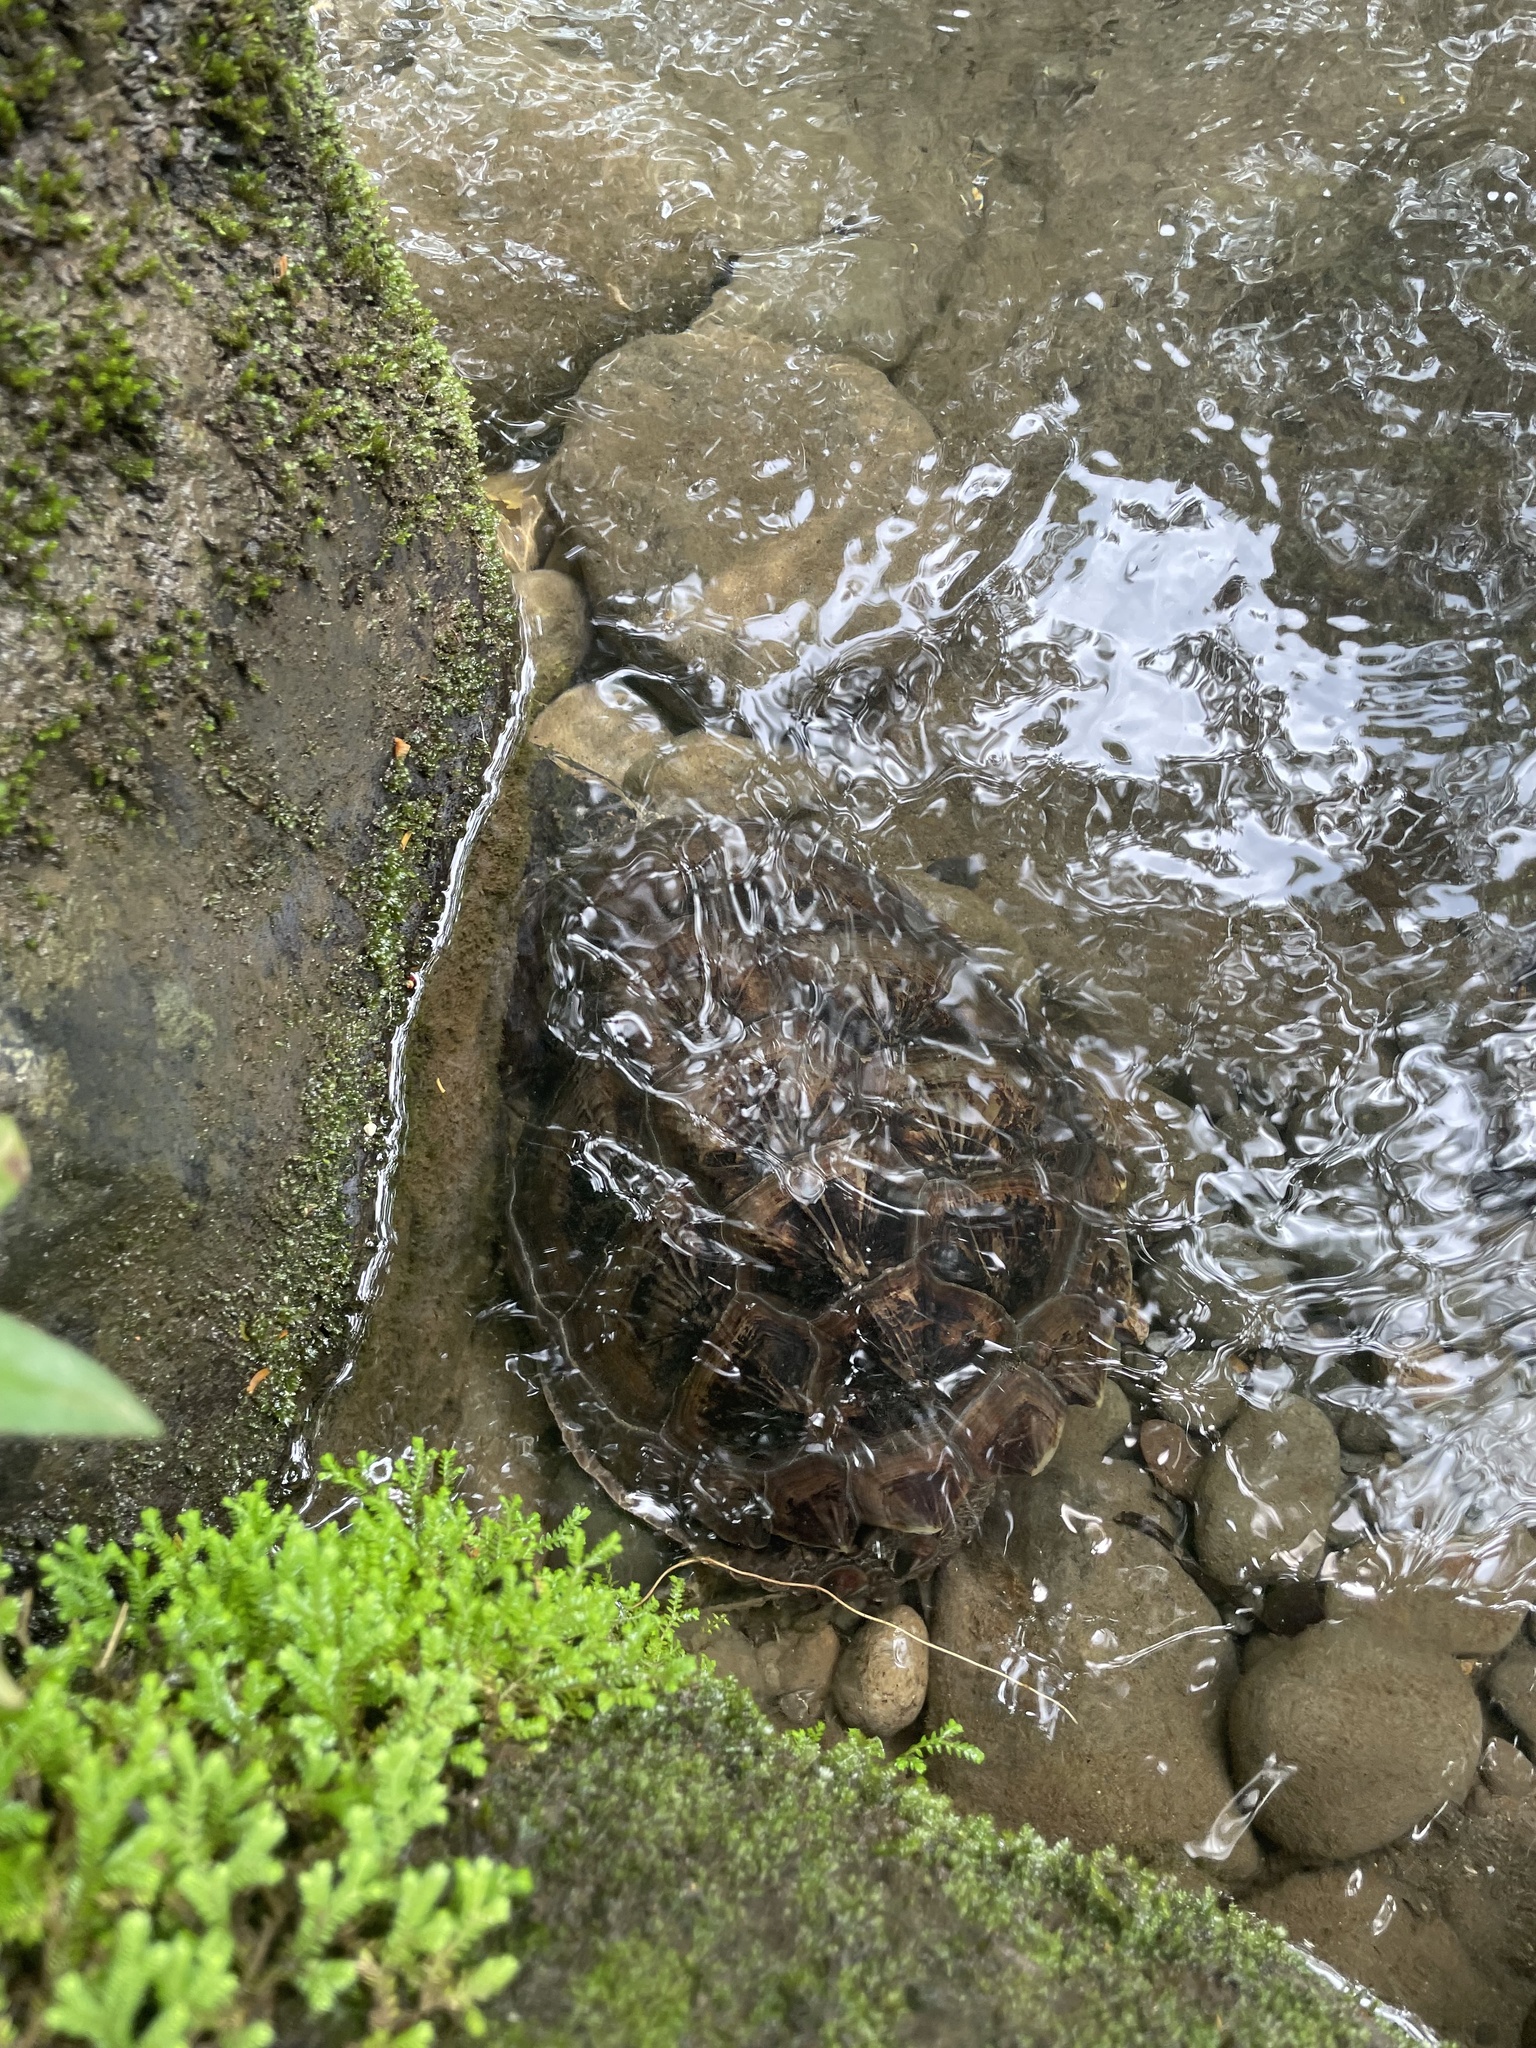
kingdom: Animalia
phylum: Chordata
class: Testudines
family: Chelydridae
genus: Chelydra
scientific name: Chelydra acutirostris
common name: South american snapping turtle
